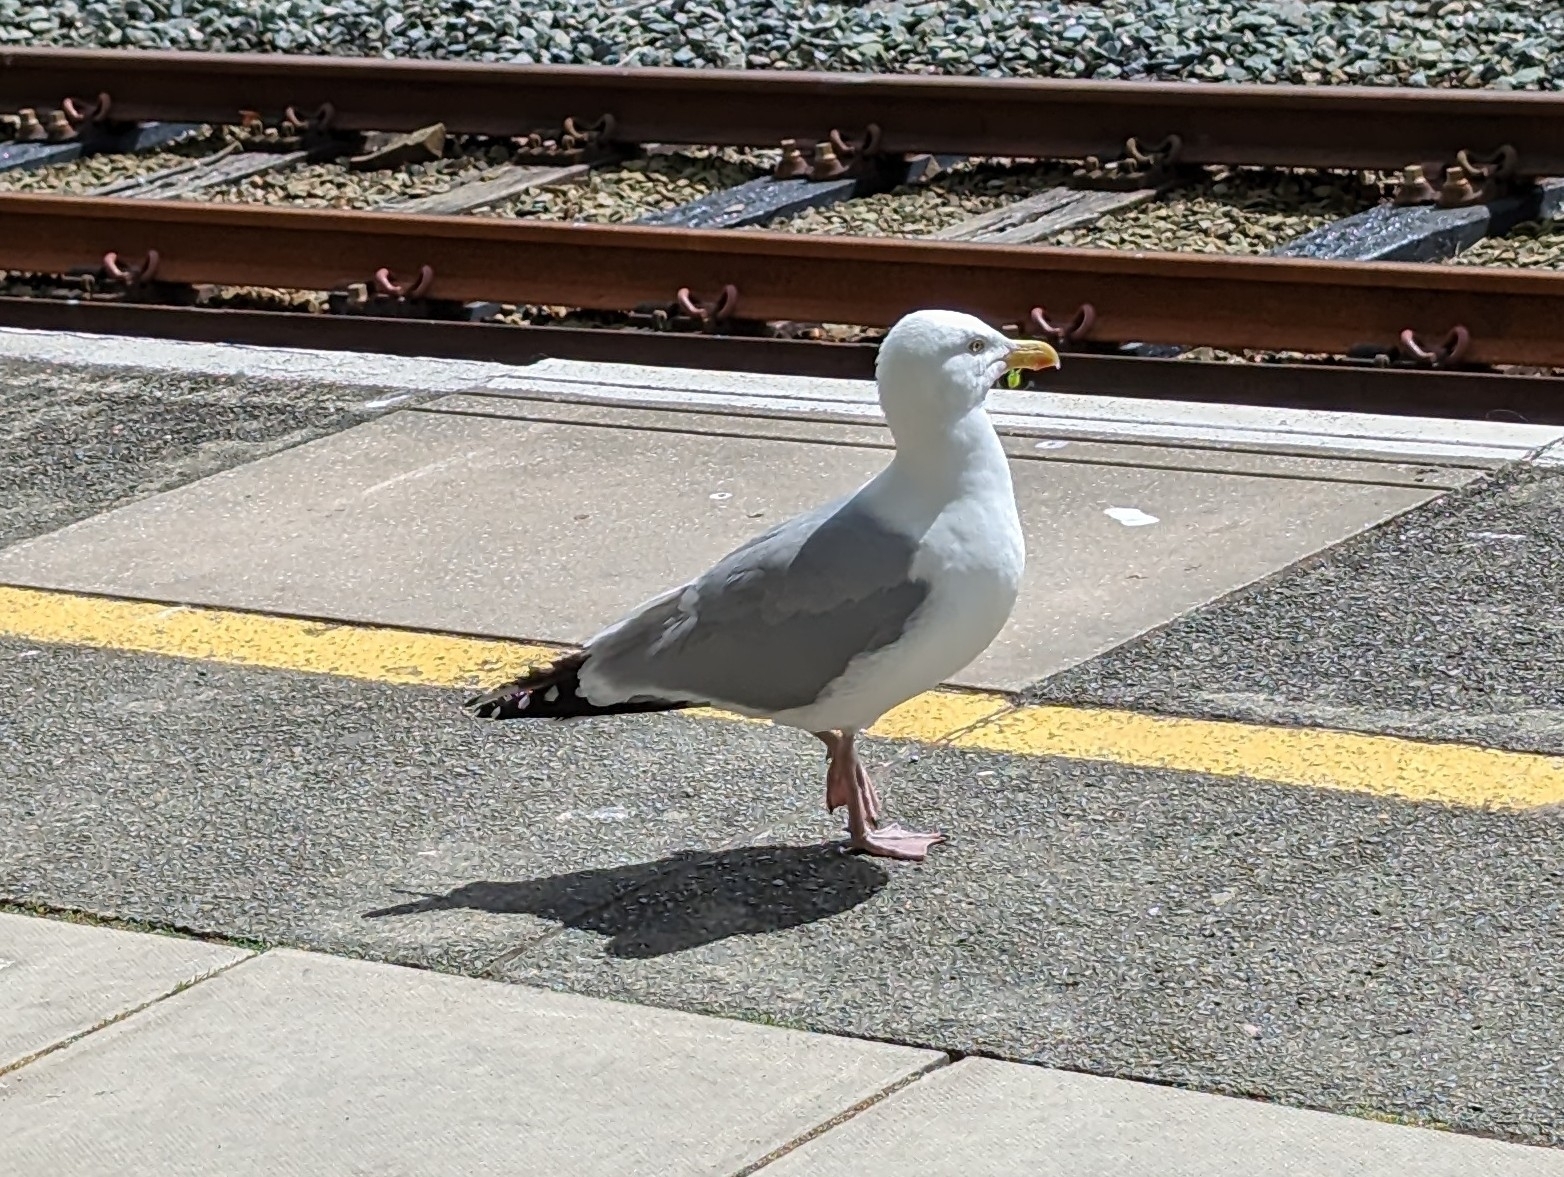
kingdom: Animalia
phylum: Chordata
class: Aves
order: Charadriiformes
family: Laridae
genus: Larus
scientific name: Larus argentatus
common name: Herring gull
